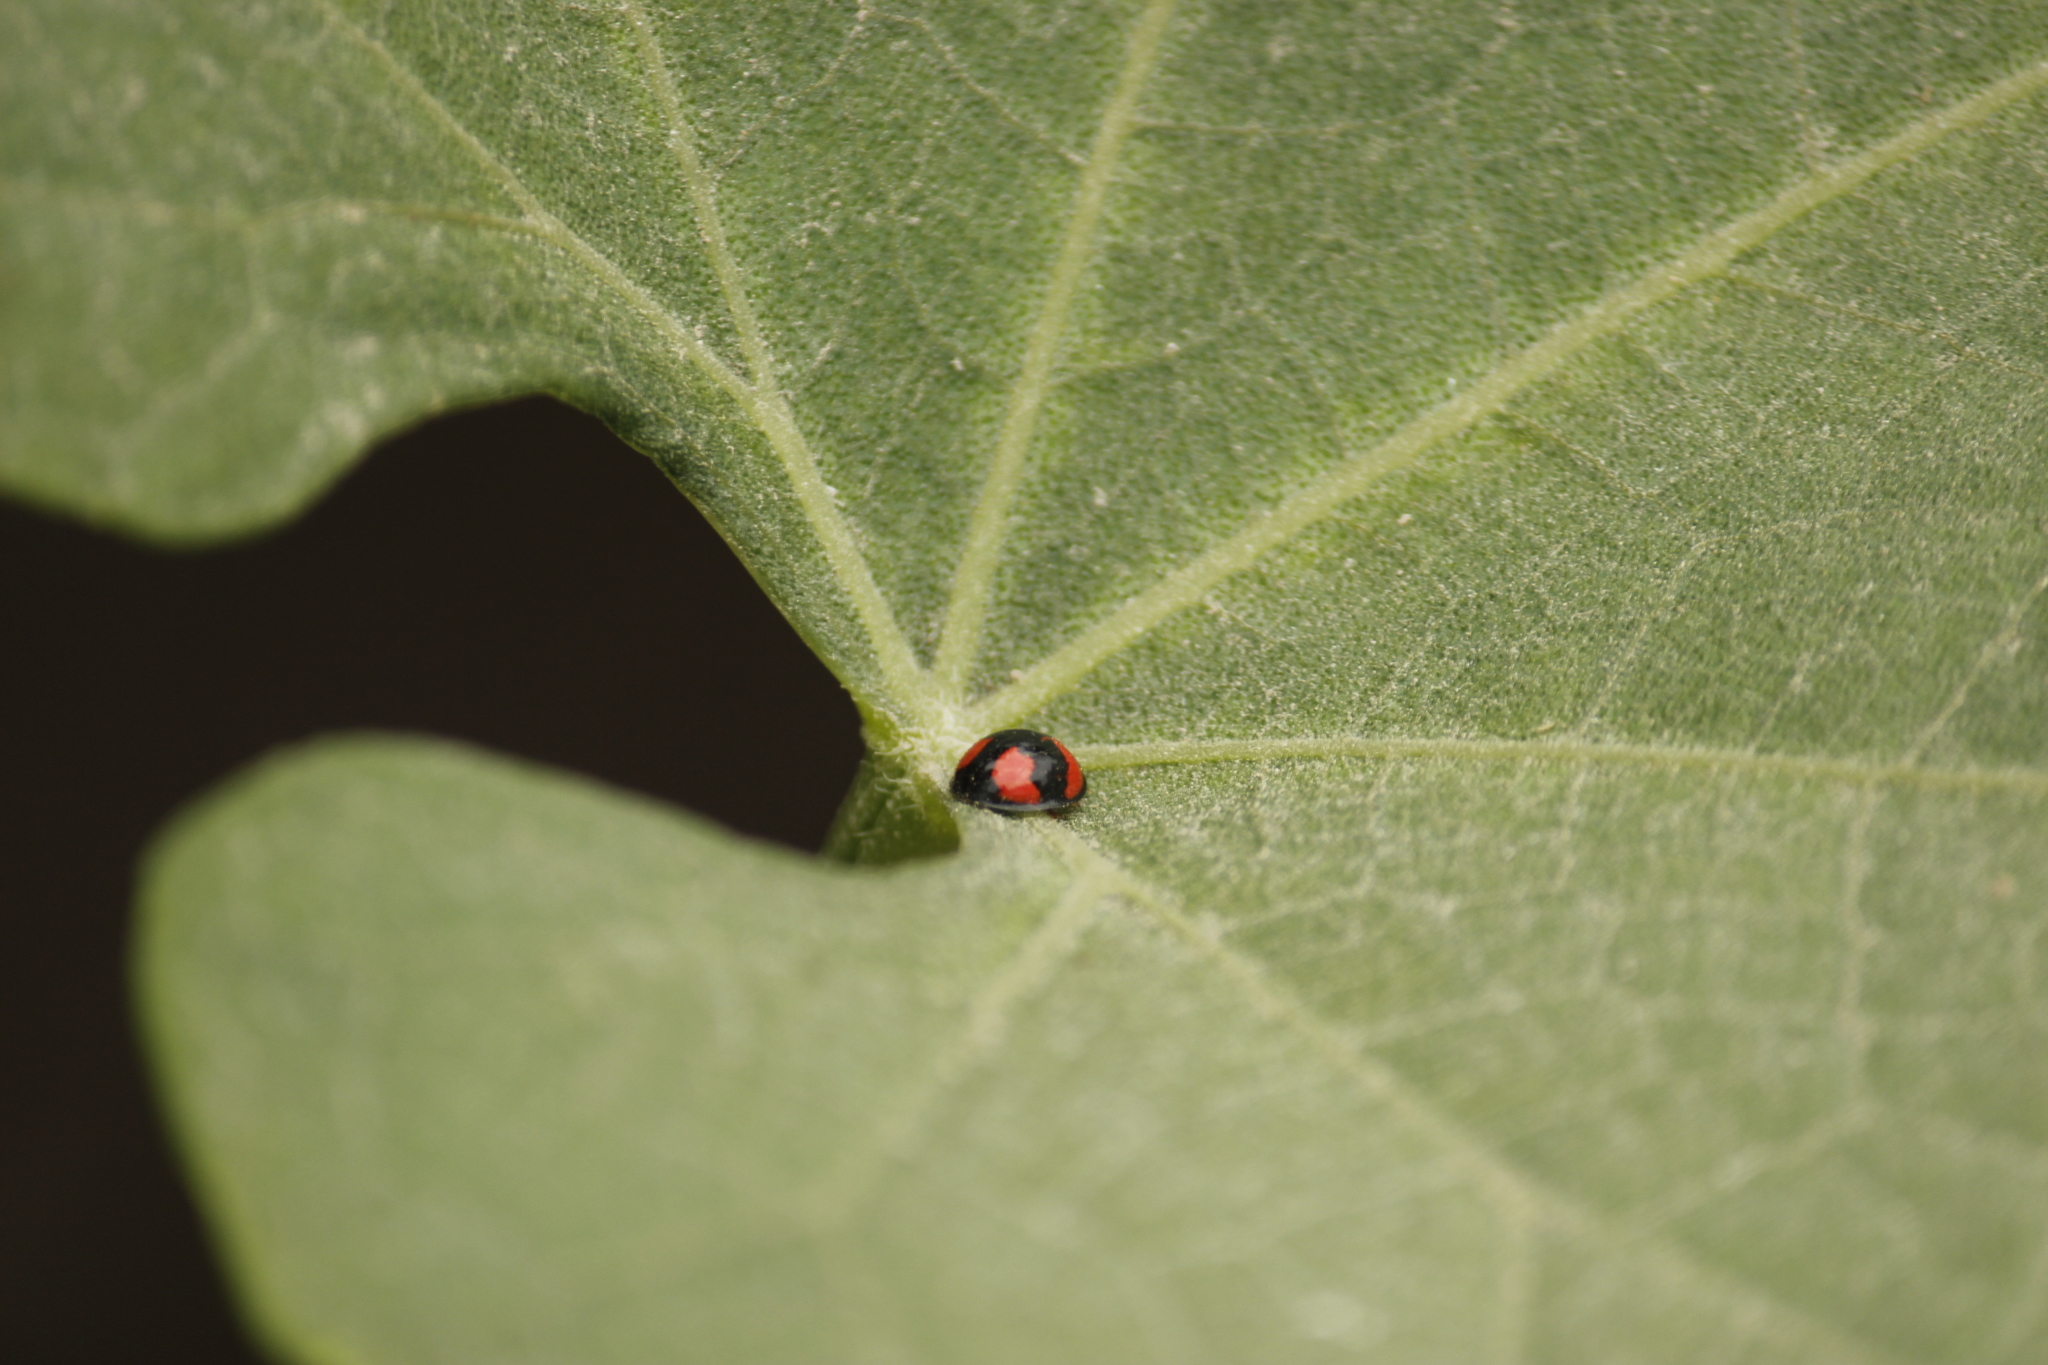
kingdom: Animalia
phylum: Arthropoda
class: Insecta
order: Coleoptera
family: Coccinellidae
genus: Cheilomenes
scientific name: Cheilomenes sexmaculata
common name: Ladybird beetle
